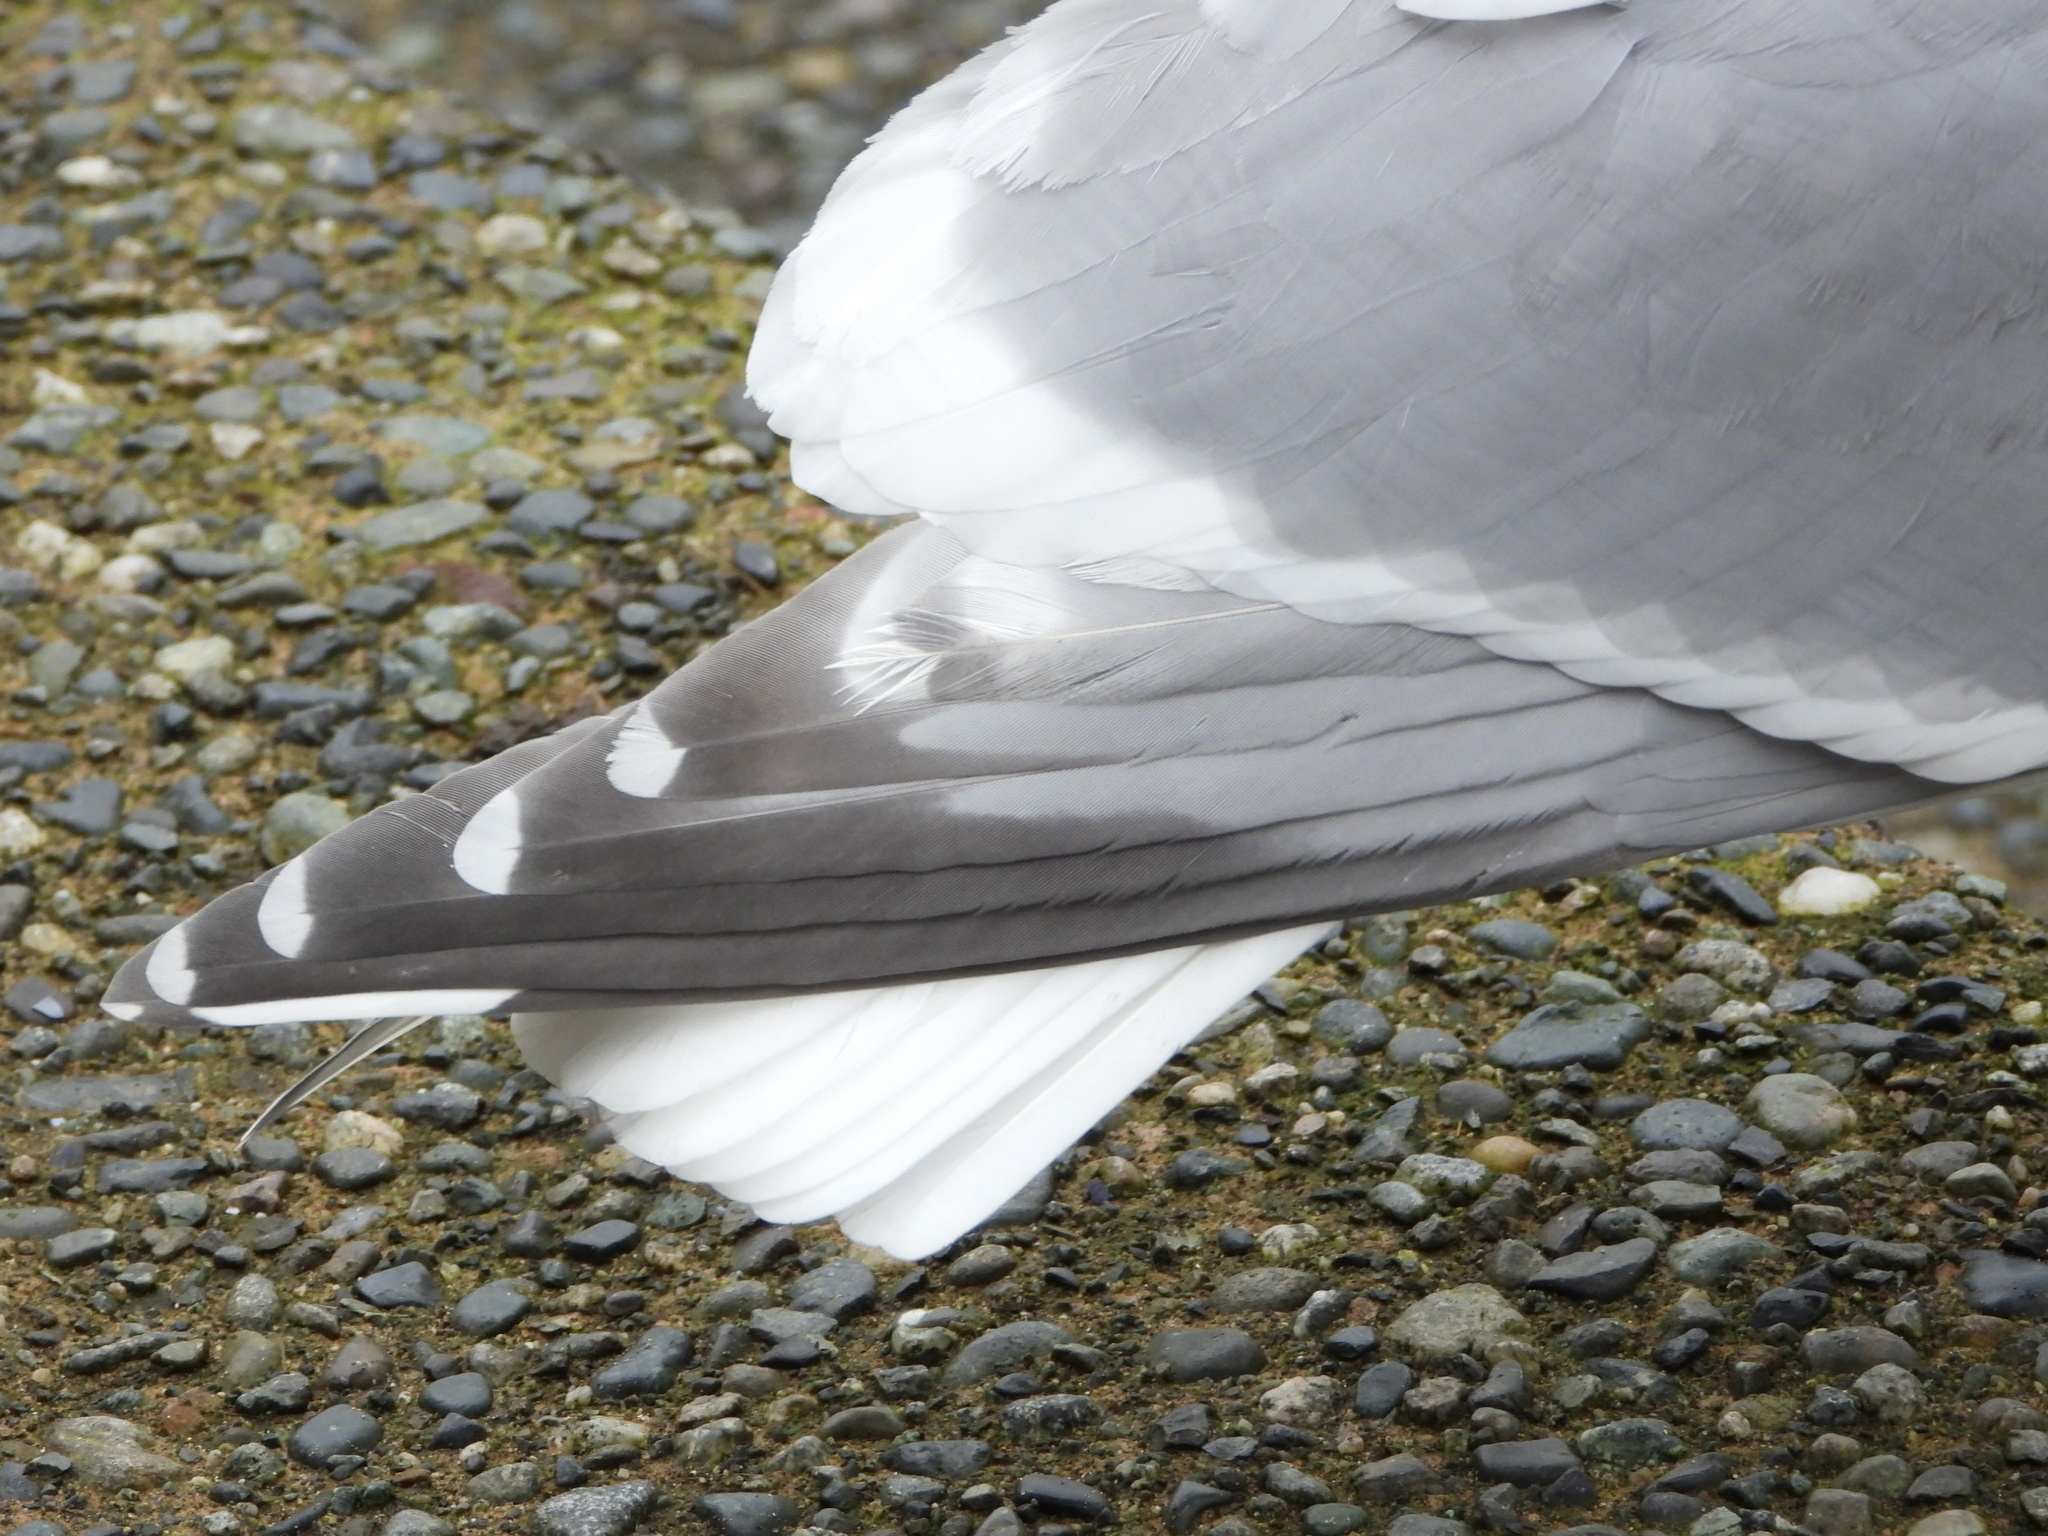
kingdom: Animalia
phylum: Chordata
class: Aves
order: Charadriiformes
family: Laridae
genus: Larus
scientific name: Larus
